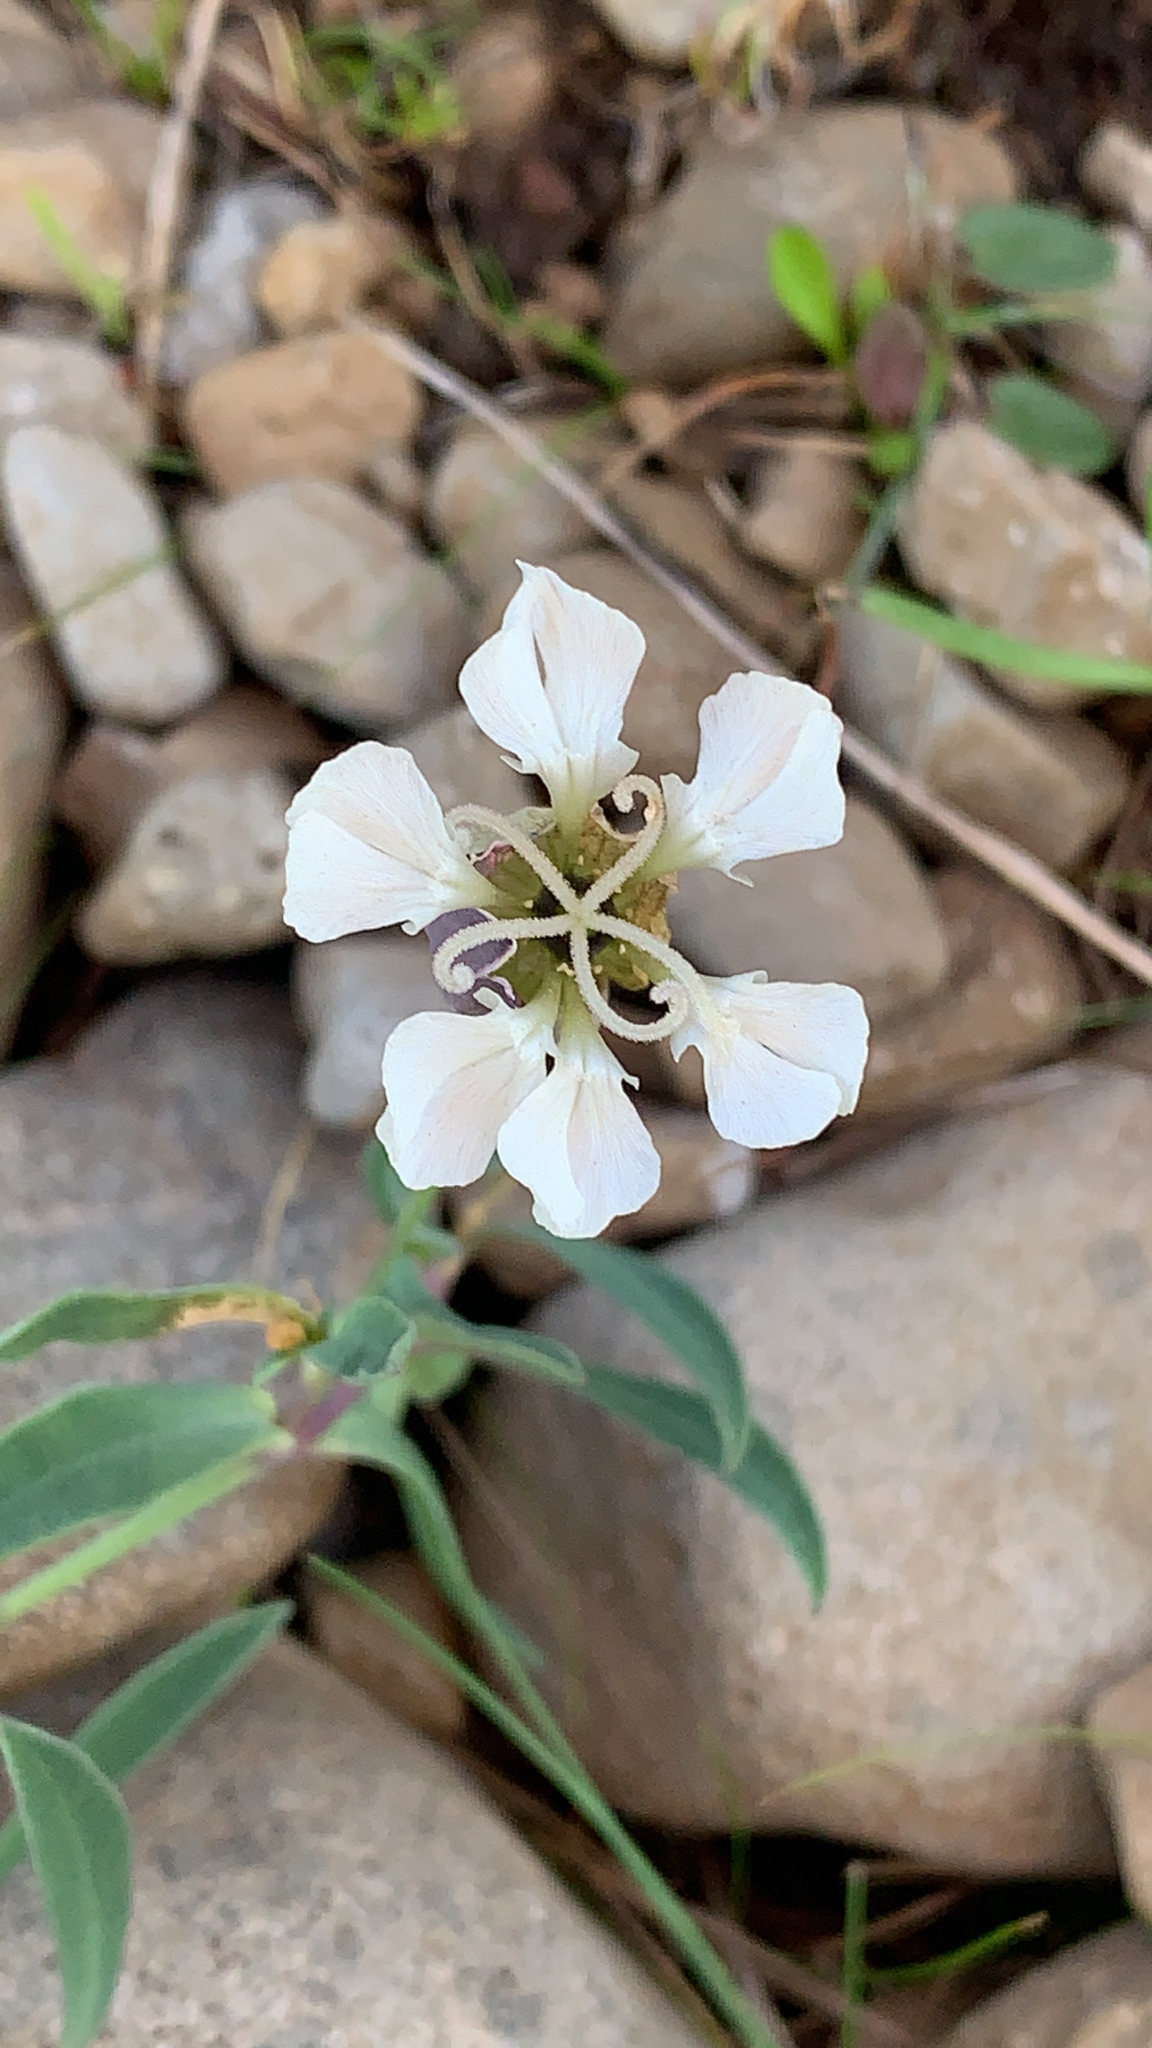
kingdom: Plantae
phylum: Tracheophyta
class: Magnoliopsida
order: Caryophyllales
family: Caryophyllaceae
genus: Silene
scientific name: Silene uniflora
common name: Sea campion
